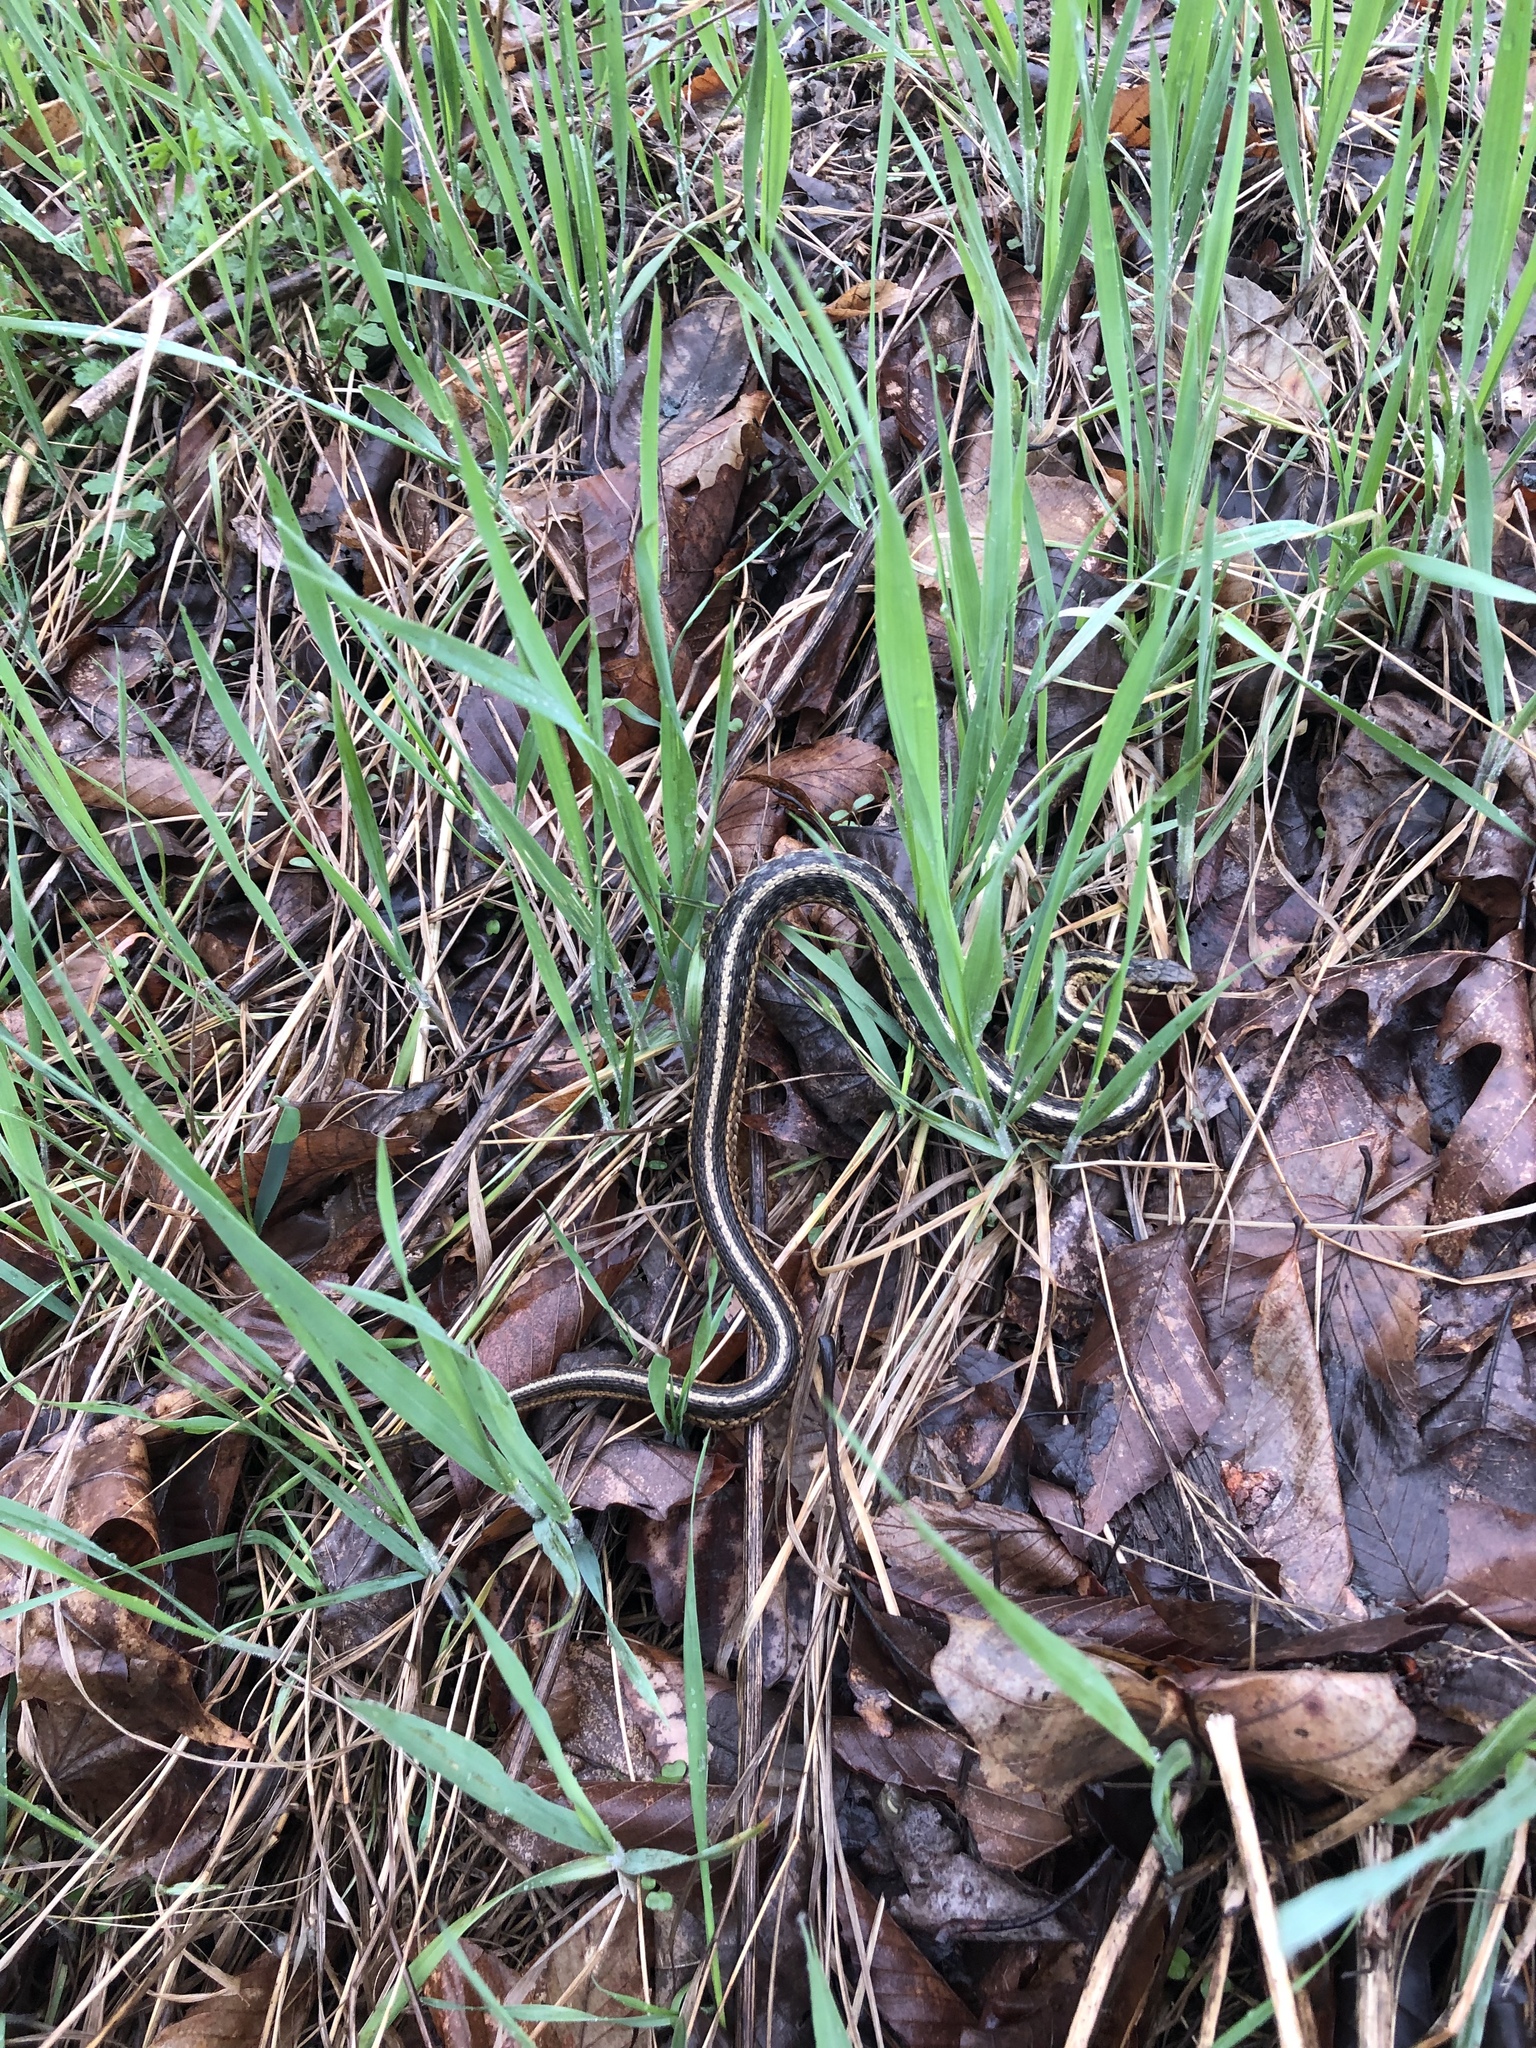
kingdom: Animalia
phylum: Chordata
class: Squamata
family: Colubridae
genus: Thamnophis
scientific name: Thamnophis sirtalis
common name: Common garter snake
